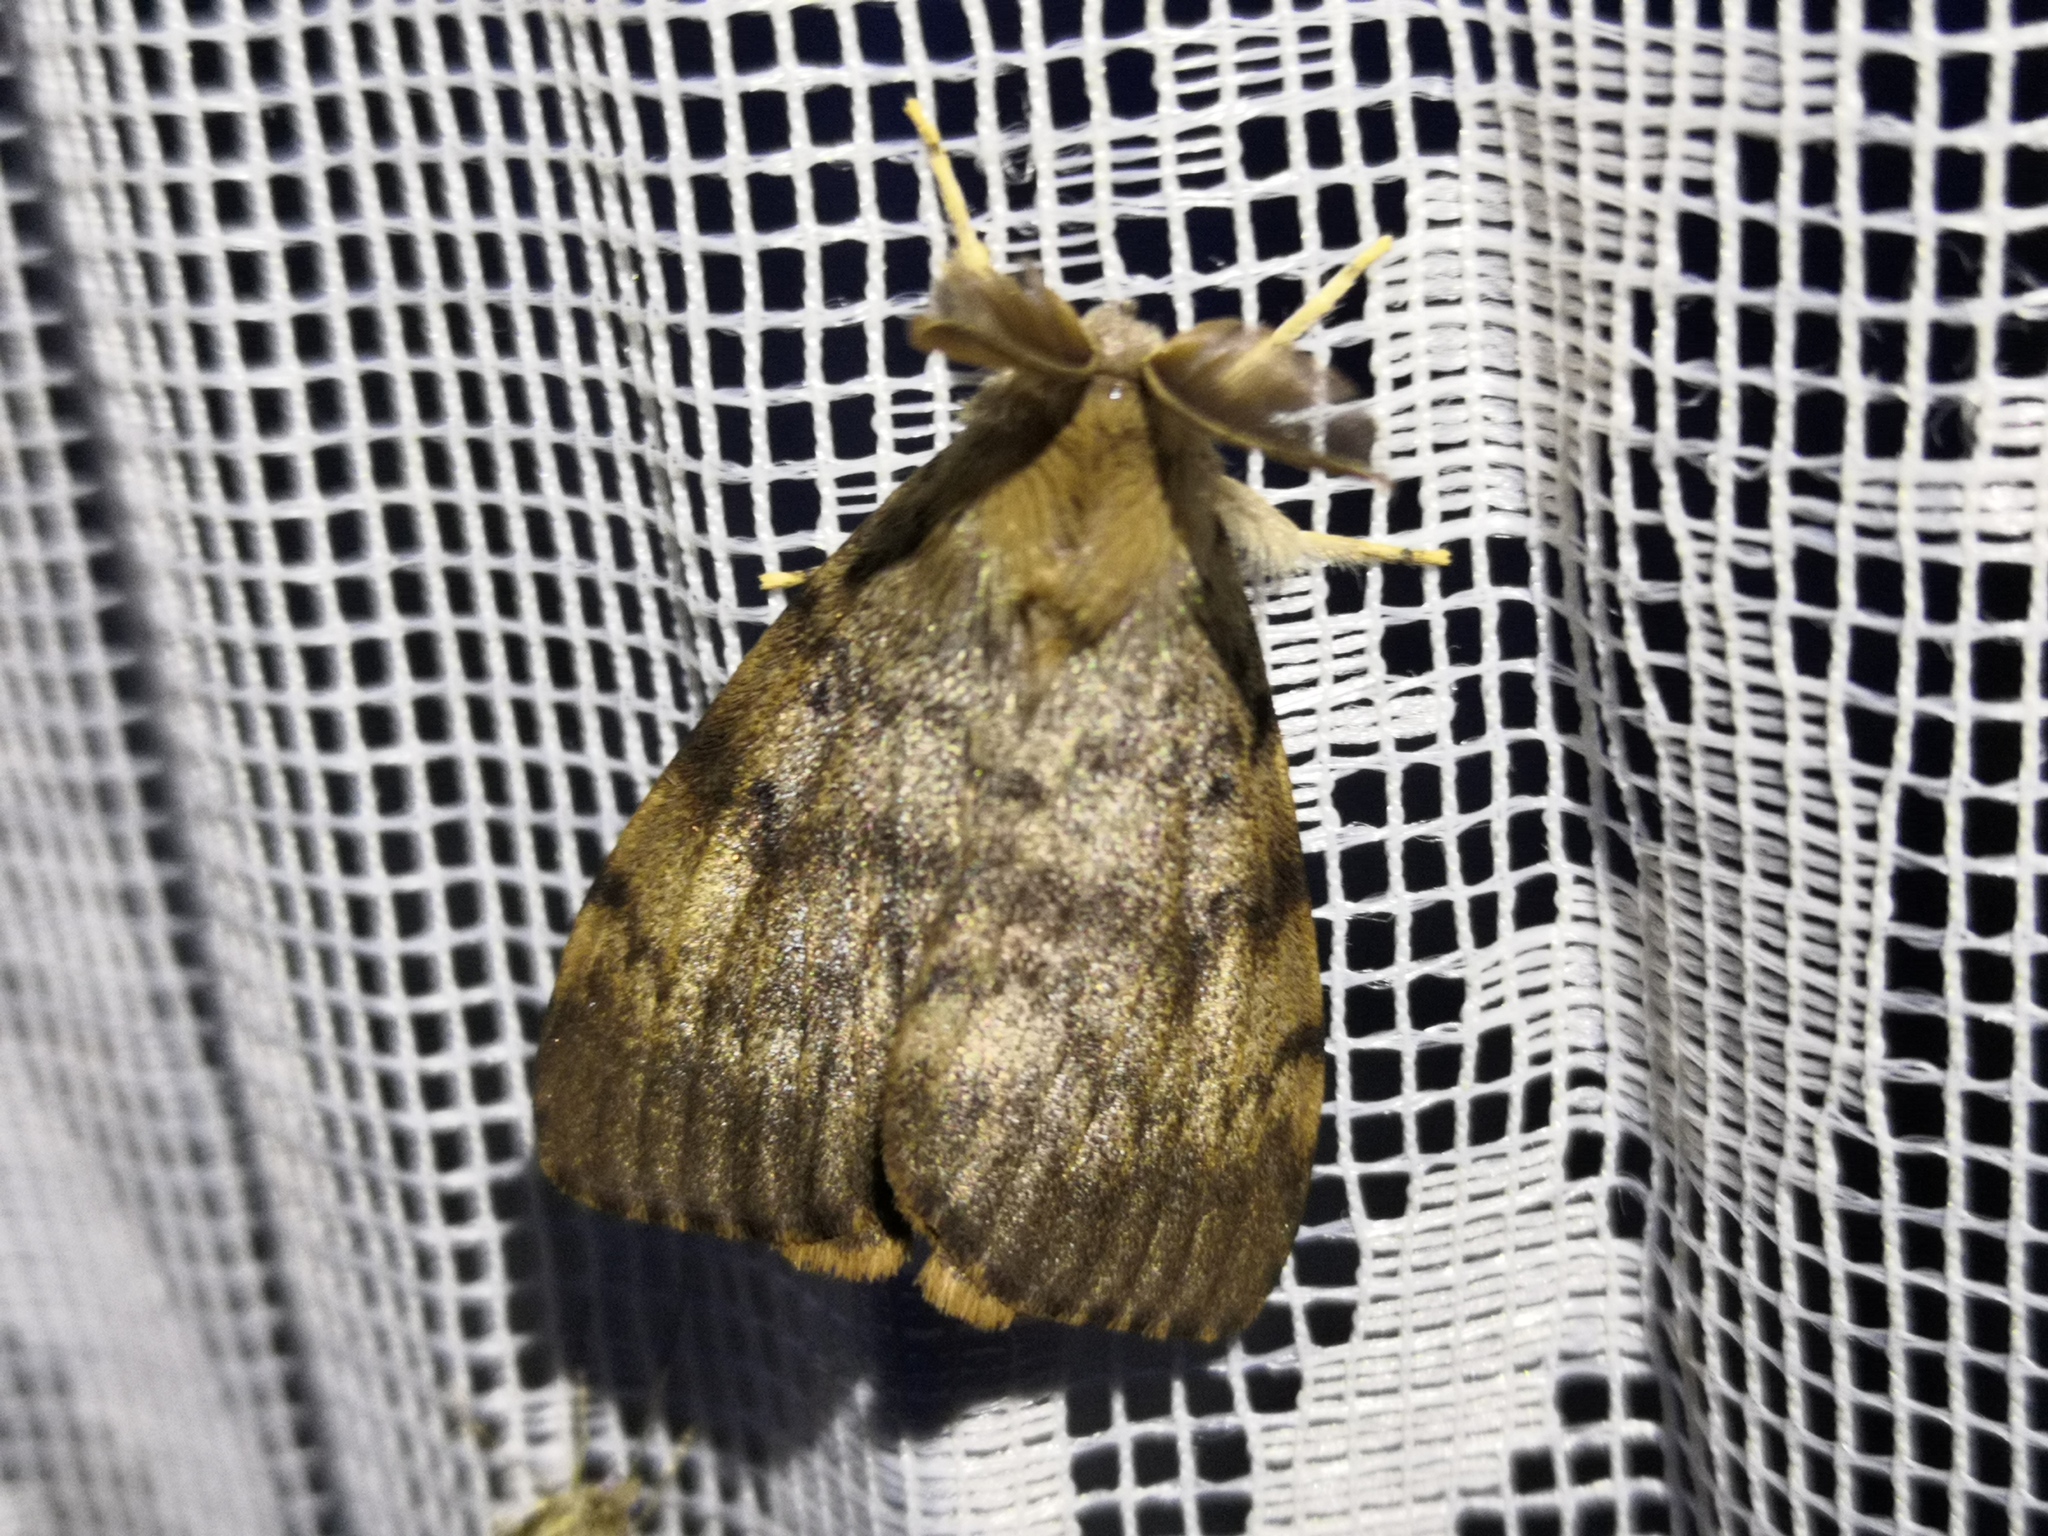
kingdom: Animalia
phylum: Arthropoda
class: Insecta
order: Lepidoptera
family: Erebidae
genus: Lymantria
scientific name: Lymantria dispar
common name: Gypsy moth
